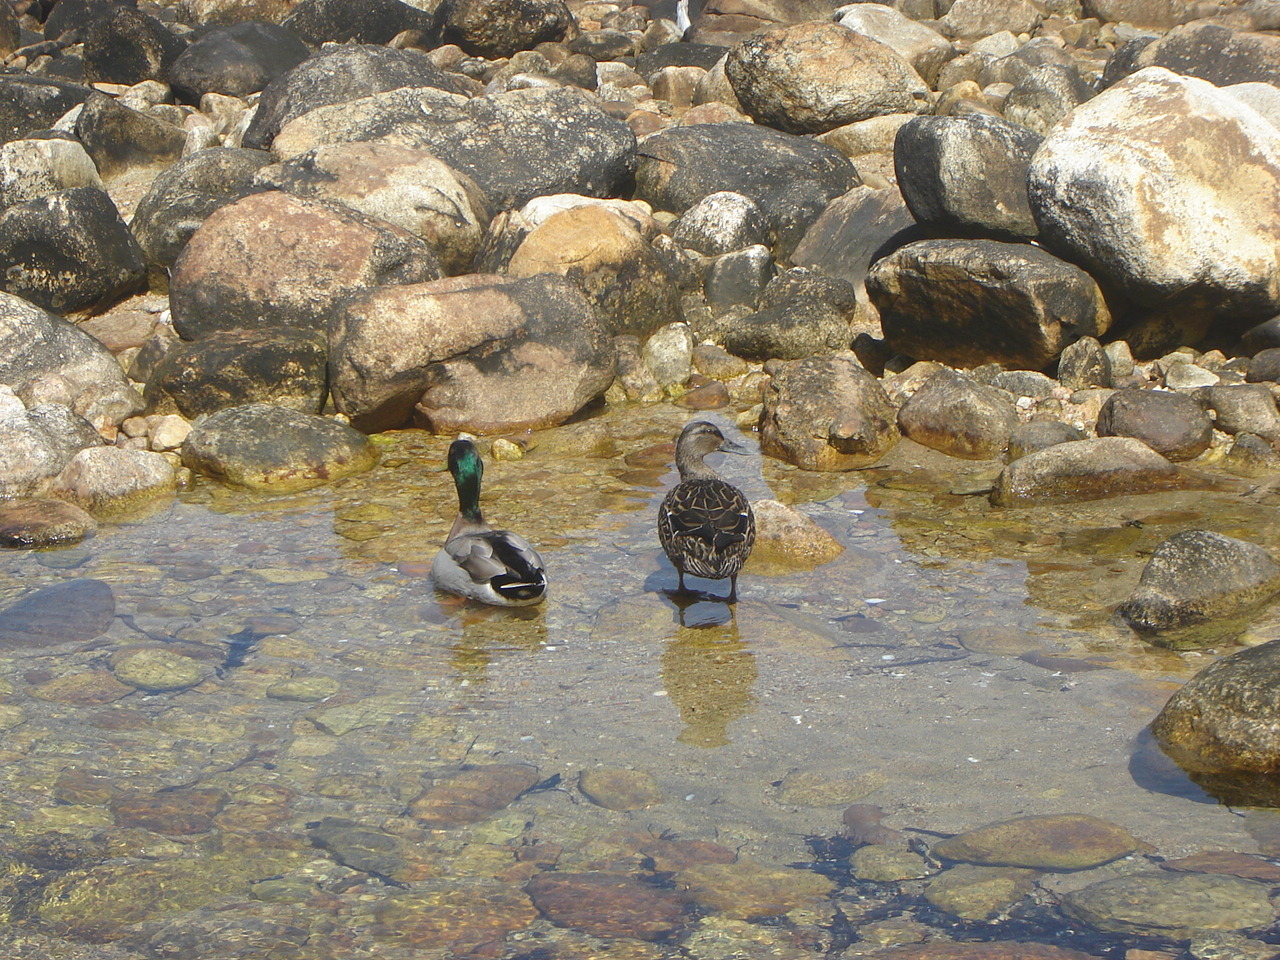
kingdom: Animalia
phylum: Chordata
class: Aves
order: Anseriformes
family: Anatidae
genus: Anas
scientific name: Anas
